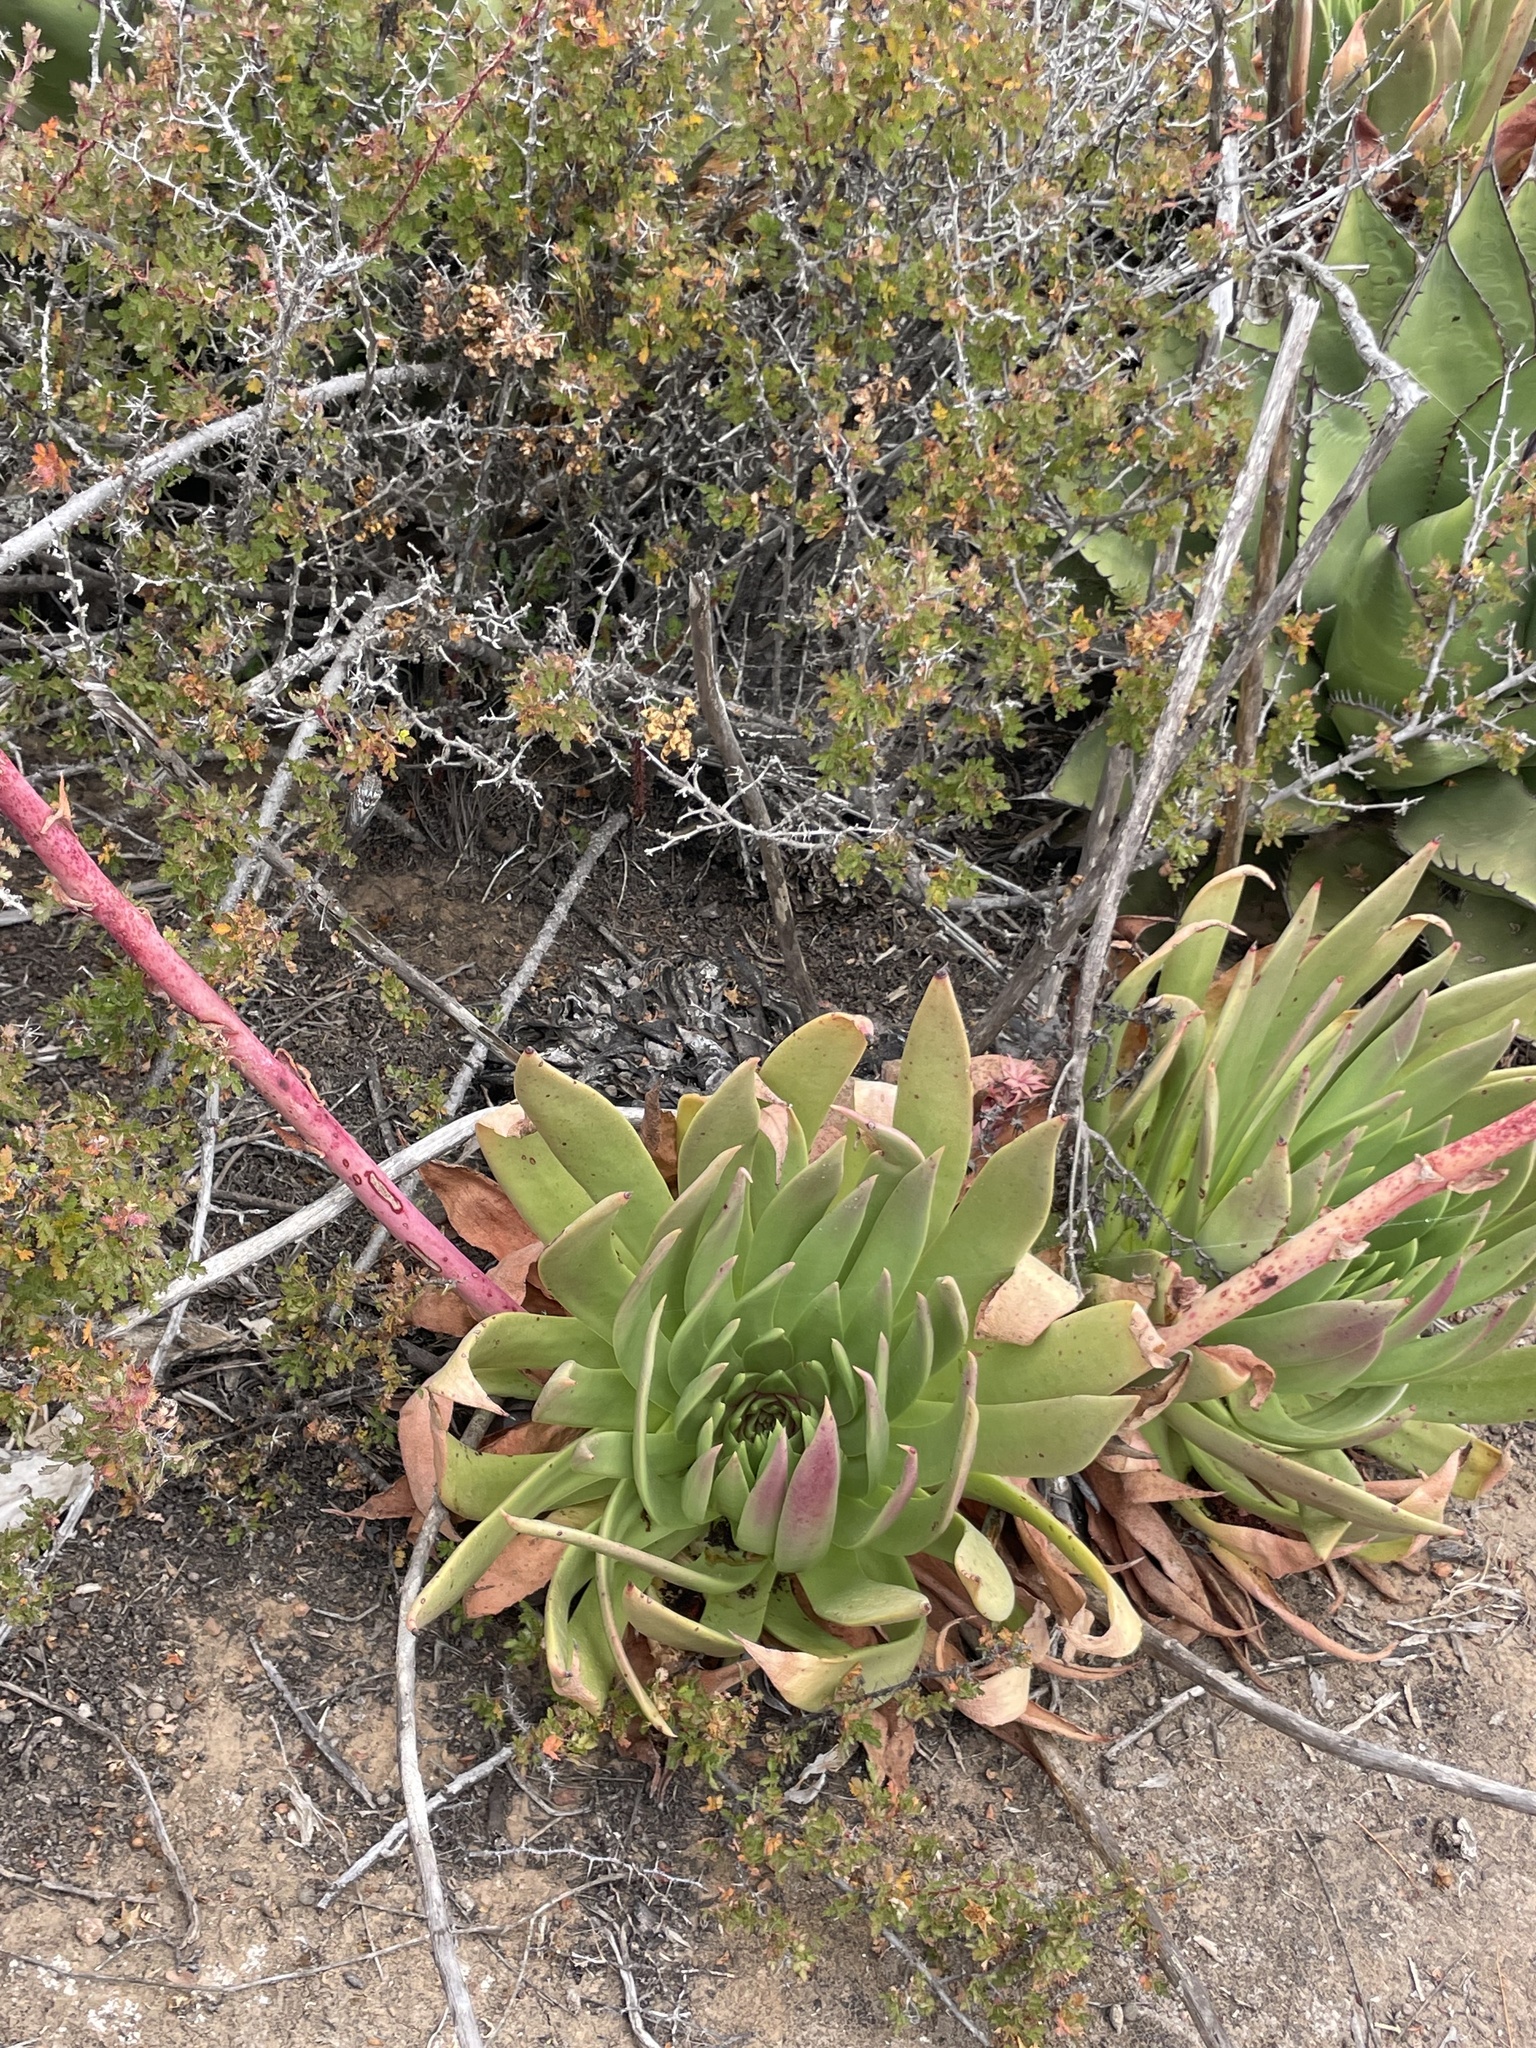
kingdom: Plantae
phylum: Tracheophyta
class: Magnoliopsida
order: Saxifragales
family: Crassulaceae
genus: Dudleya
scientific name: Dudleya ingens
